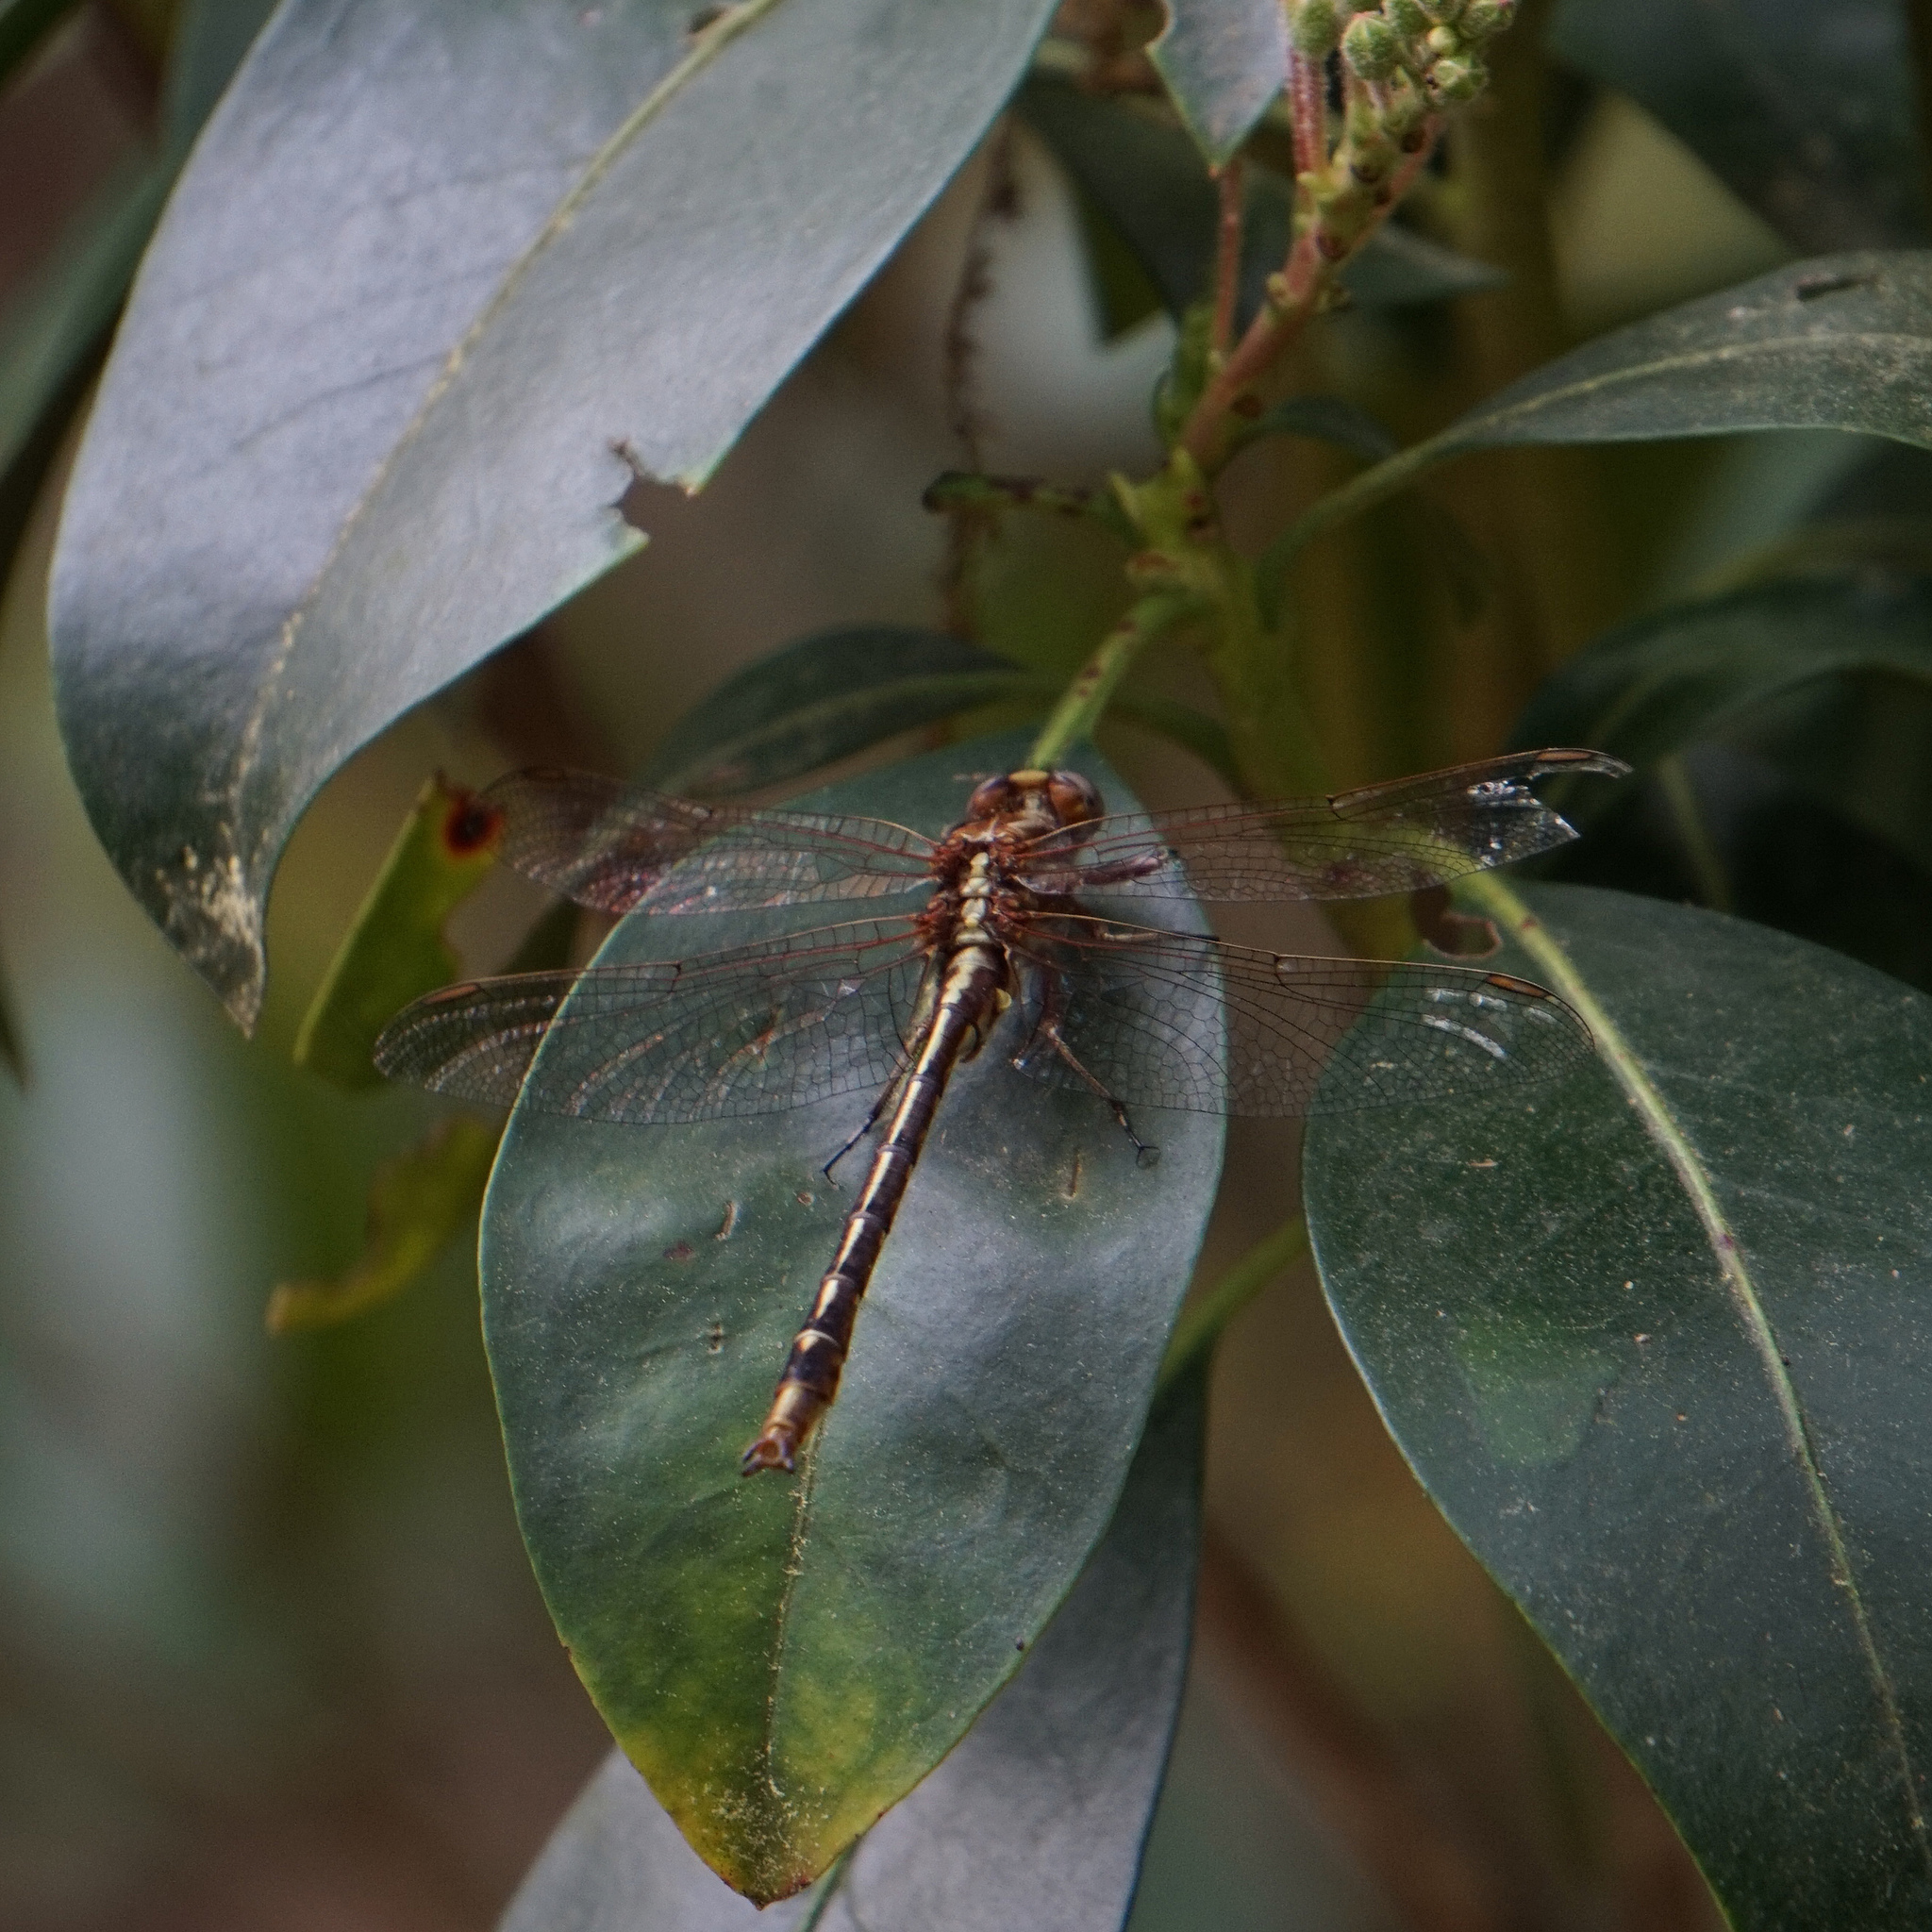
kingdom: Animalia
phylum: Arthropoda
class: Insecta
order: Odonata
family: Gomphidae
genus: Phanogomphus
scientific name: Phanogomphus lividus
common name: Ashy clubtail
